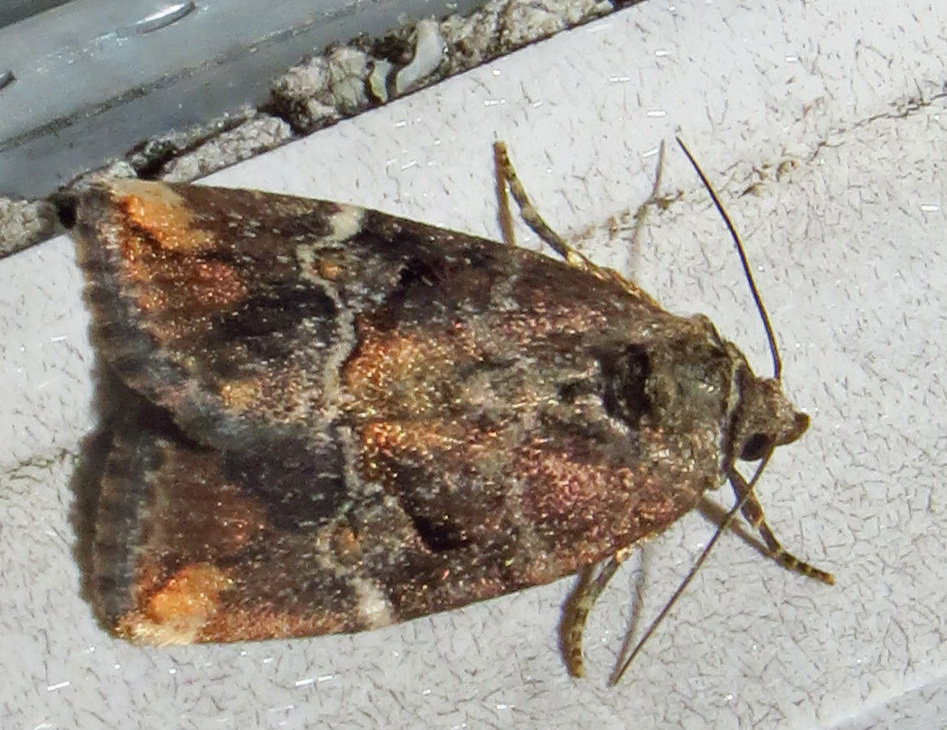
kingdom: Animalia
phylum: Arthropoda
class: Insecta
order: Lepidoptera
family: Noctuidae
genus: Elaphria
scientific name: Elaphria versicolor
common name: Fir harlequin
